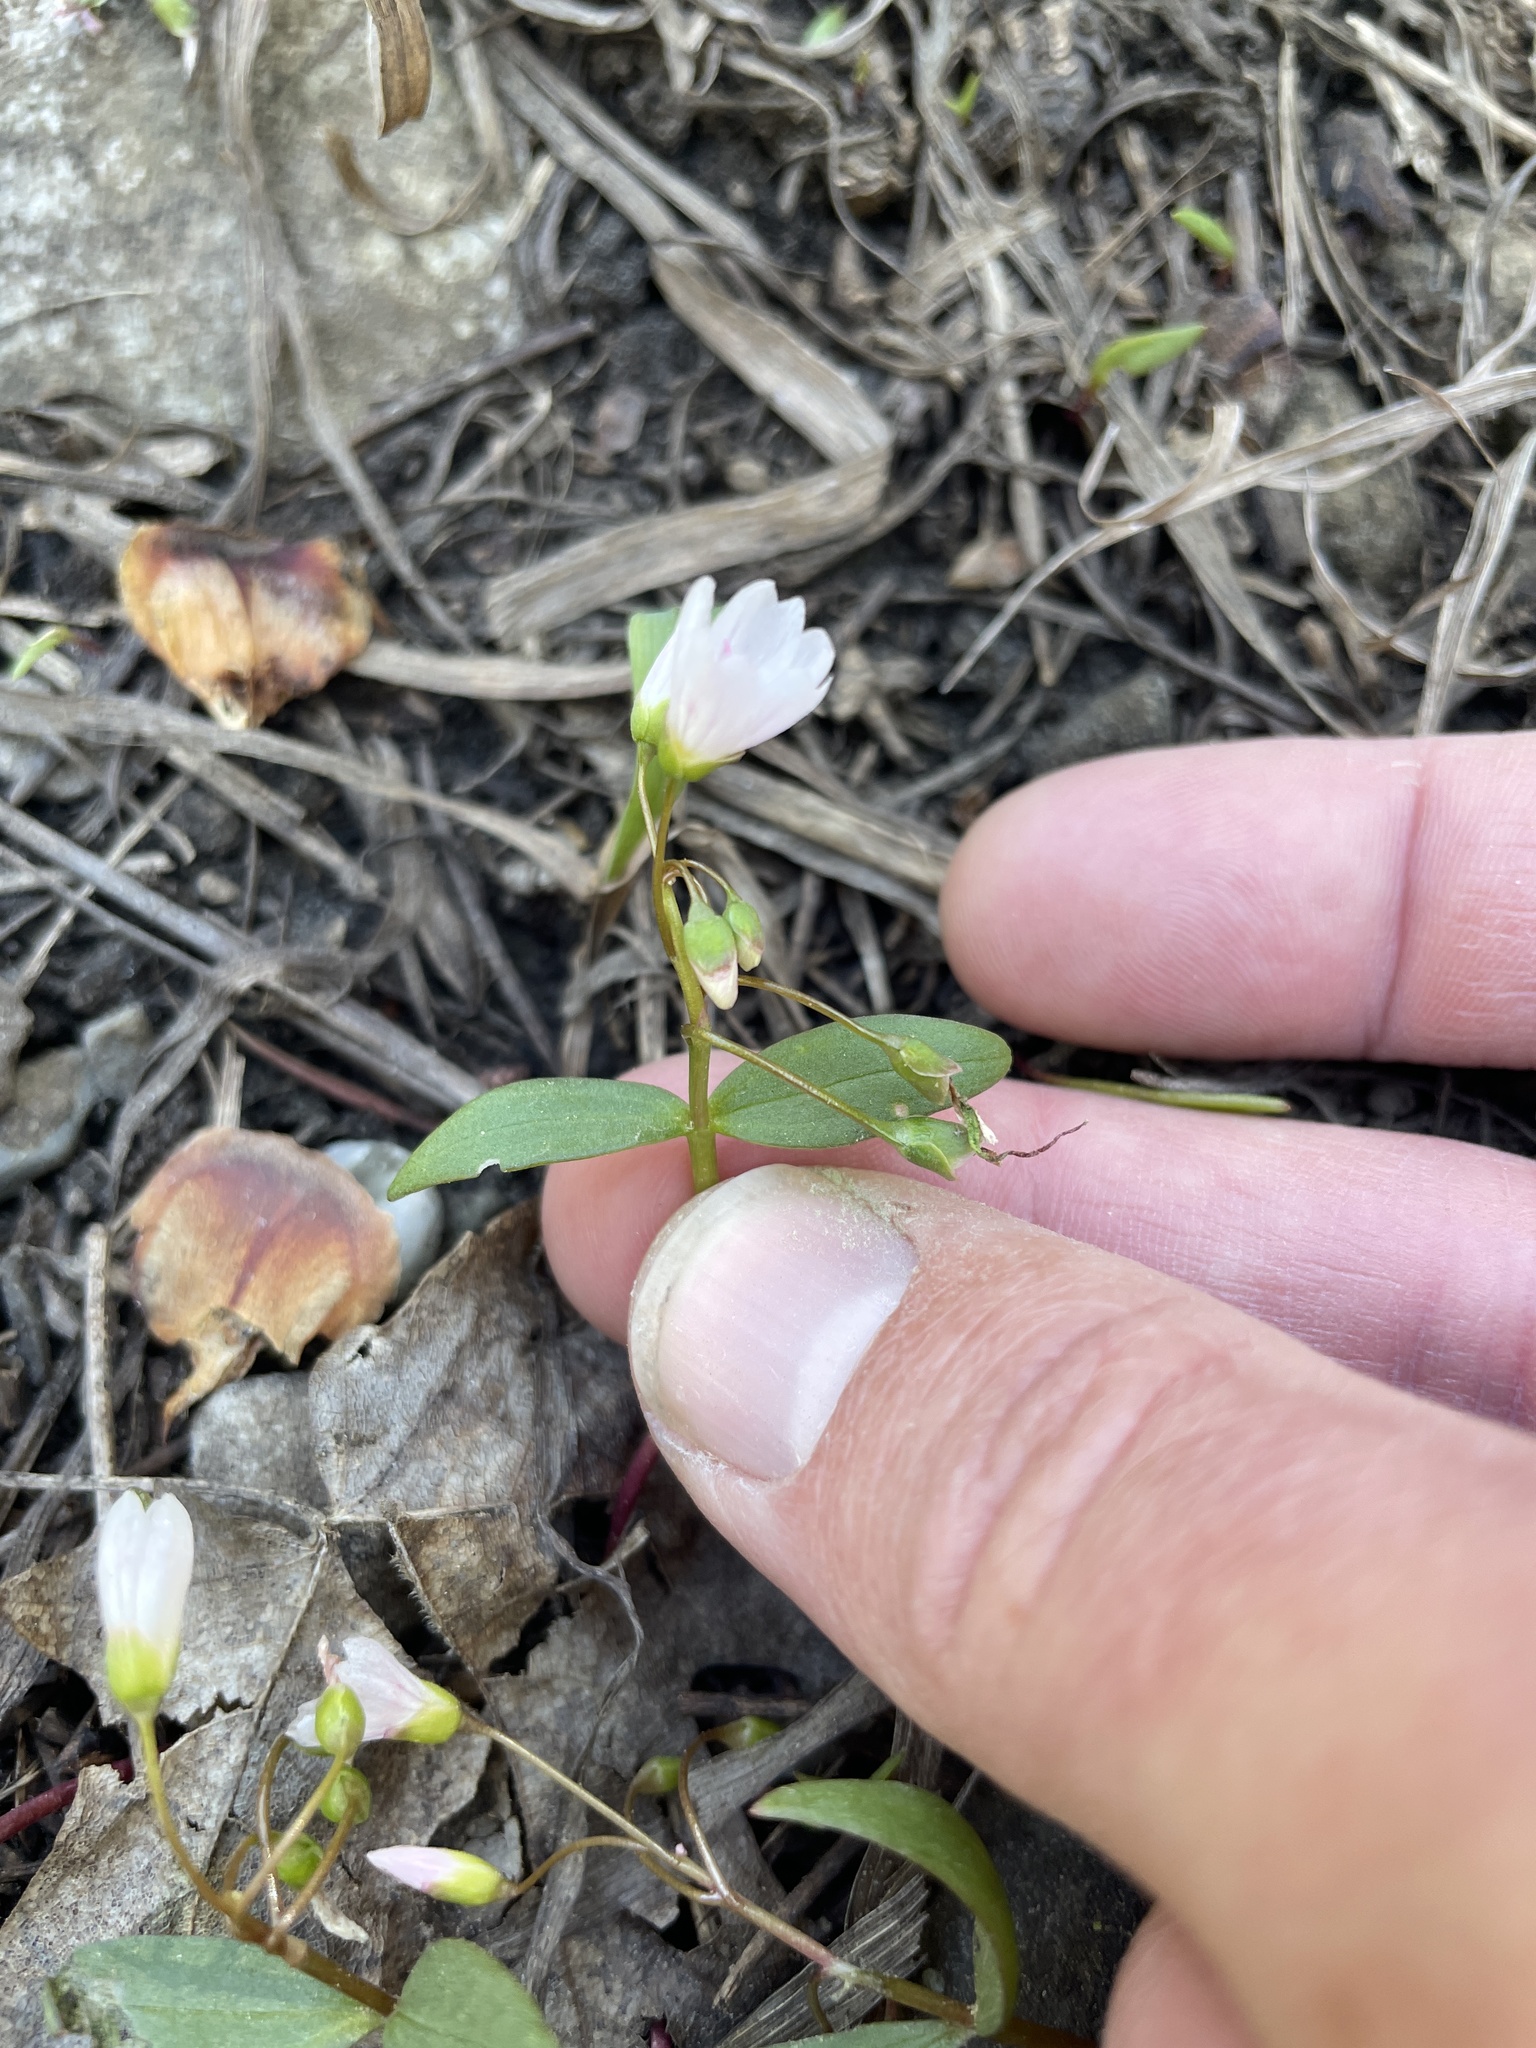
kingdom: Plantae
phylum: Tracheophyta
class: Magnoliopsida
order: Caryophyllales
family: Montiaceae
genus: Claytonia
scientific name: Claytonia lanceolata
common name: Western spring-beauty
